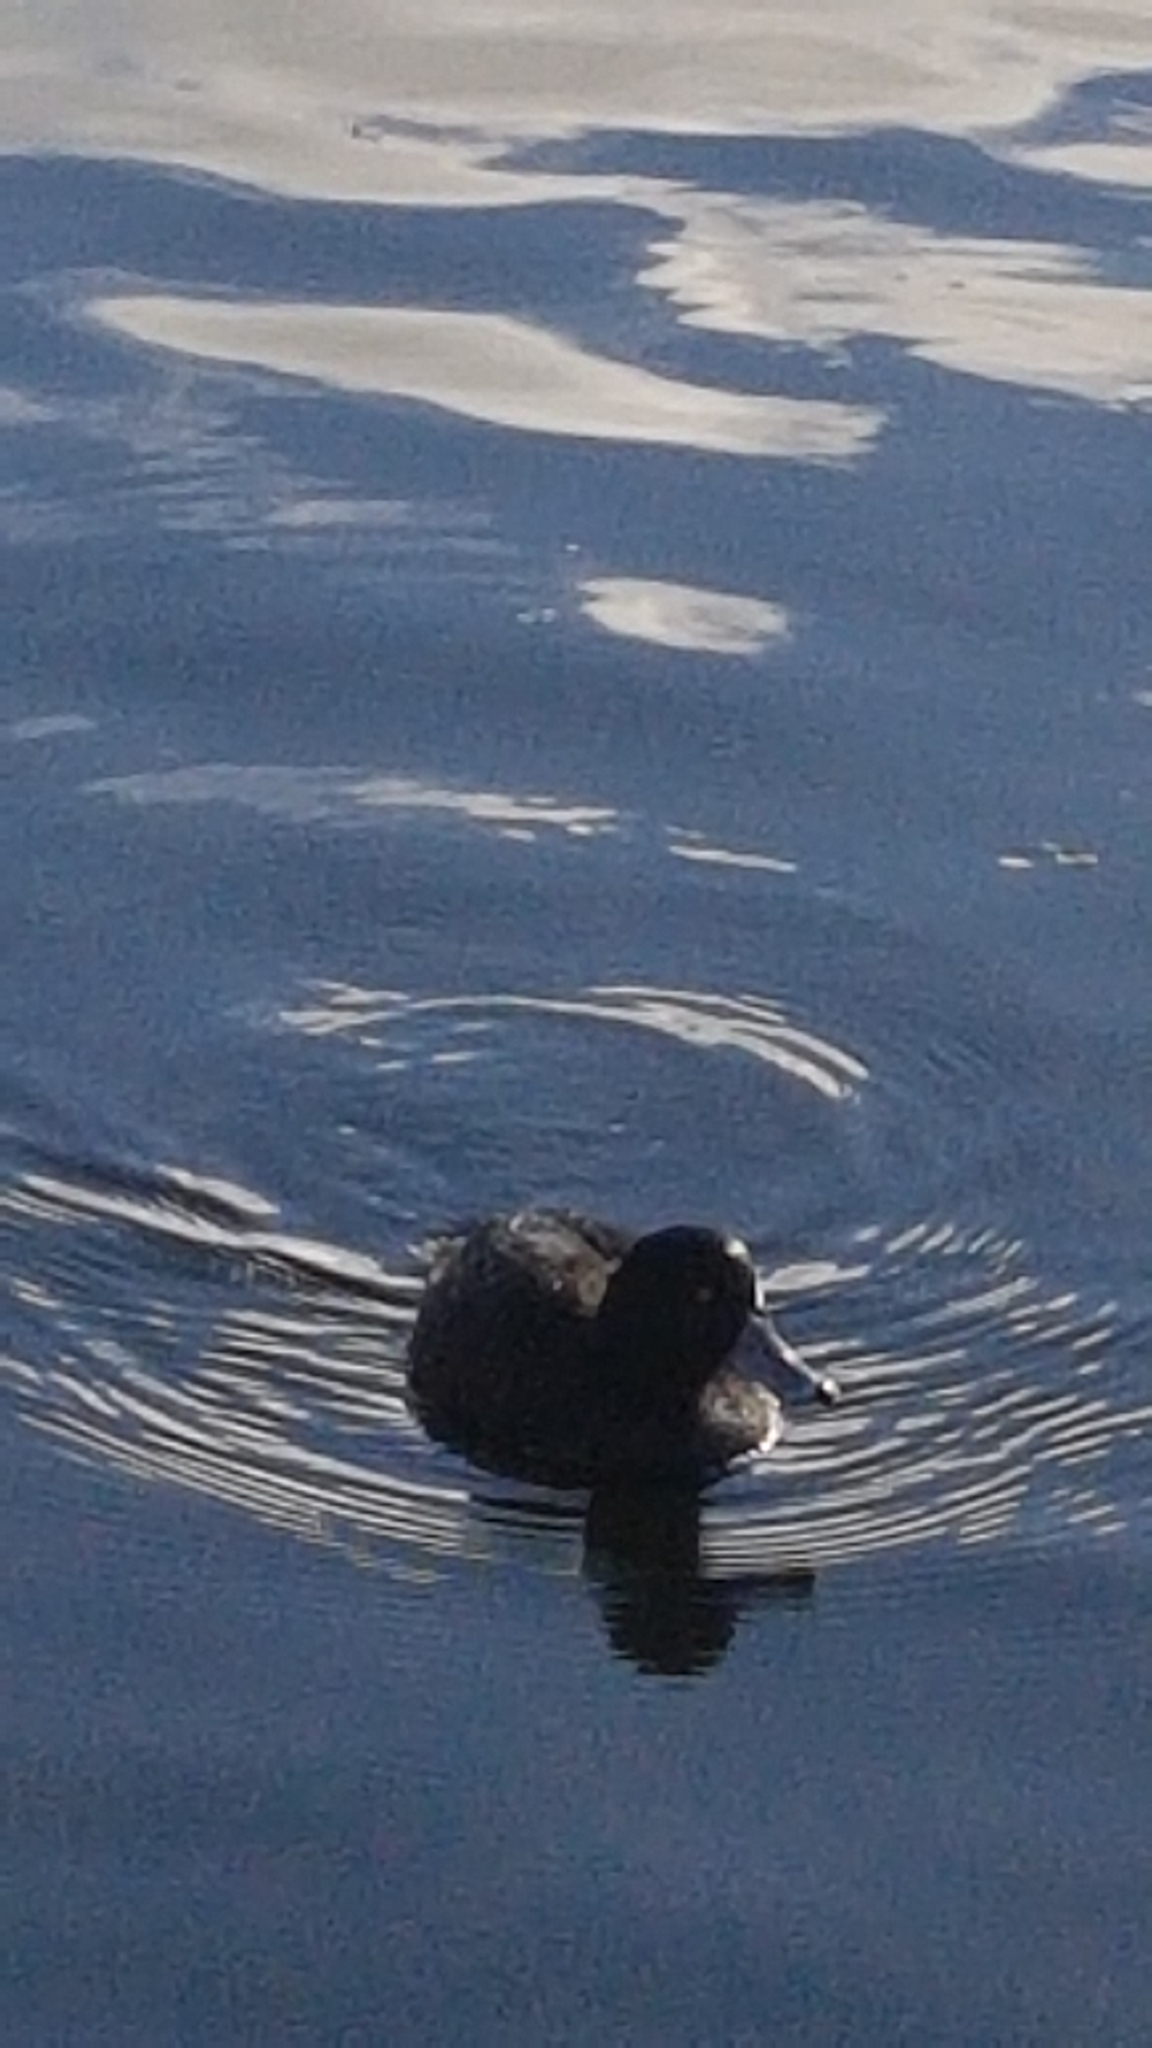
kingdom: Animalia
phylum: Chordata
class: Aves
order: Anseriformes
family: Anatidae
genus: Aythya
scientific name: Aythya novaeseelandiae
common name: New zealand scaup
